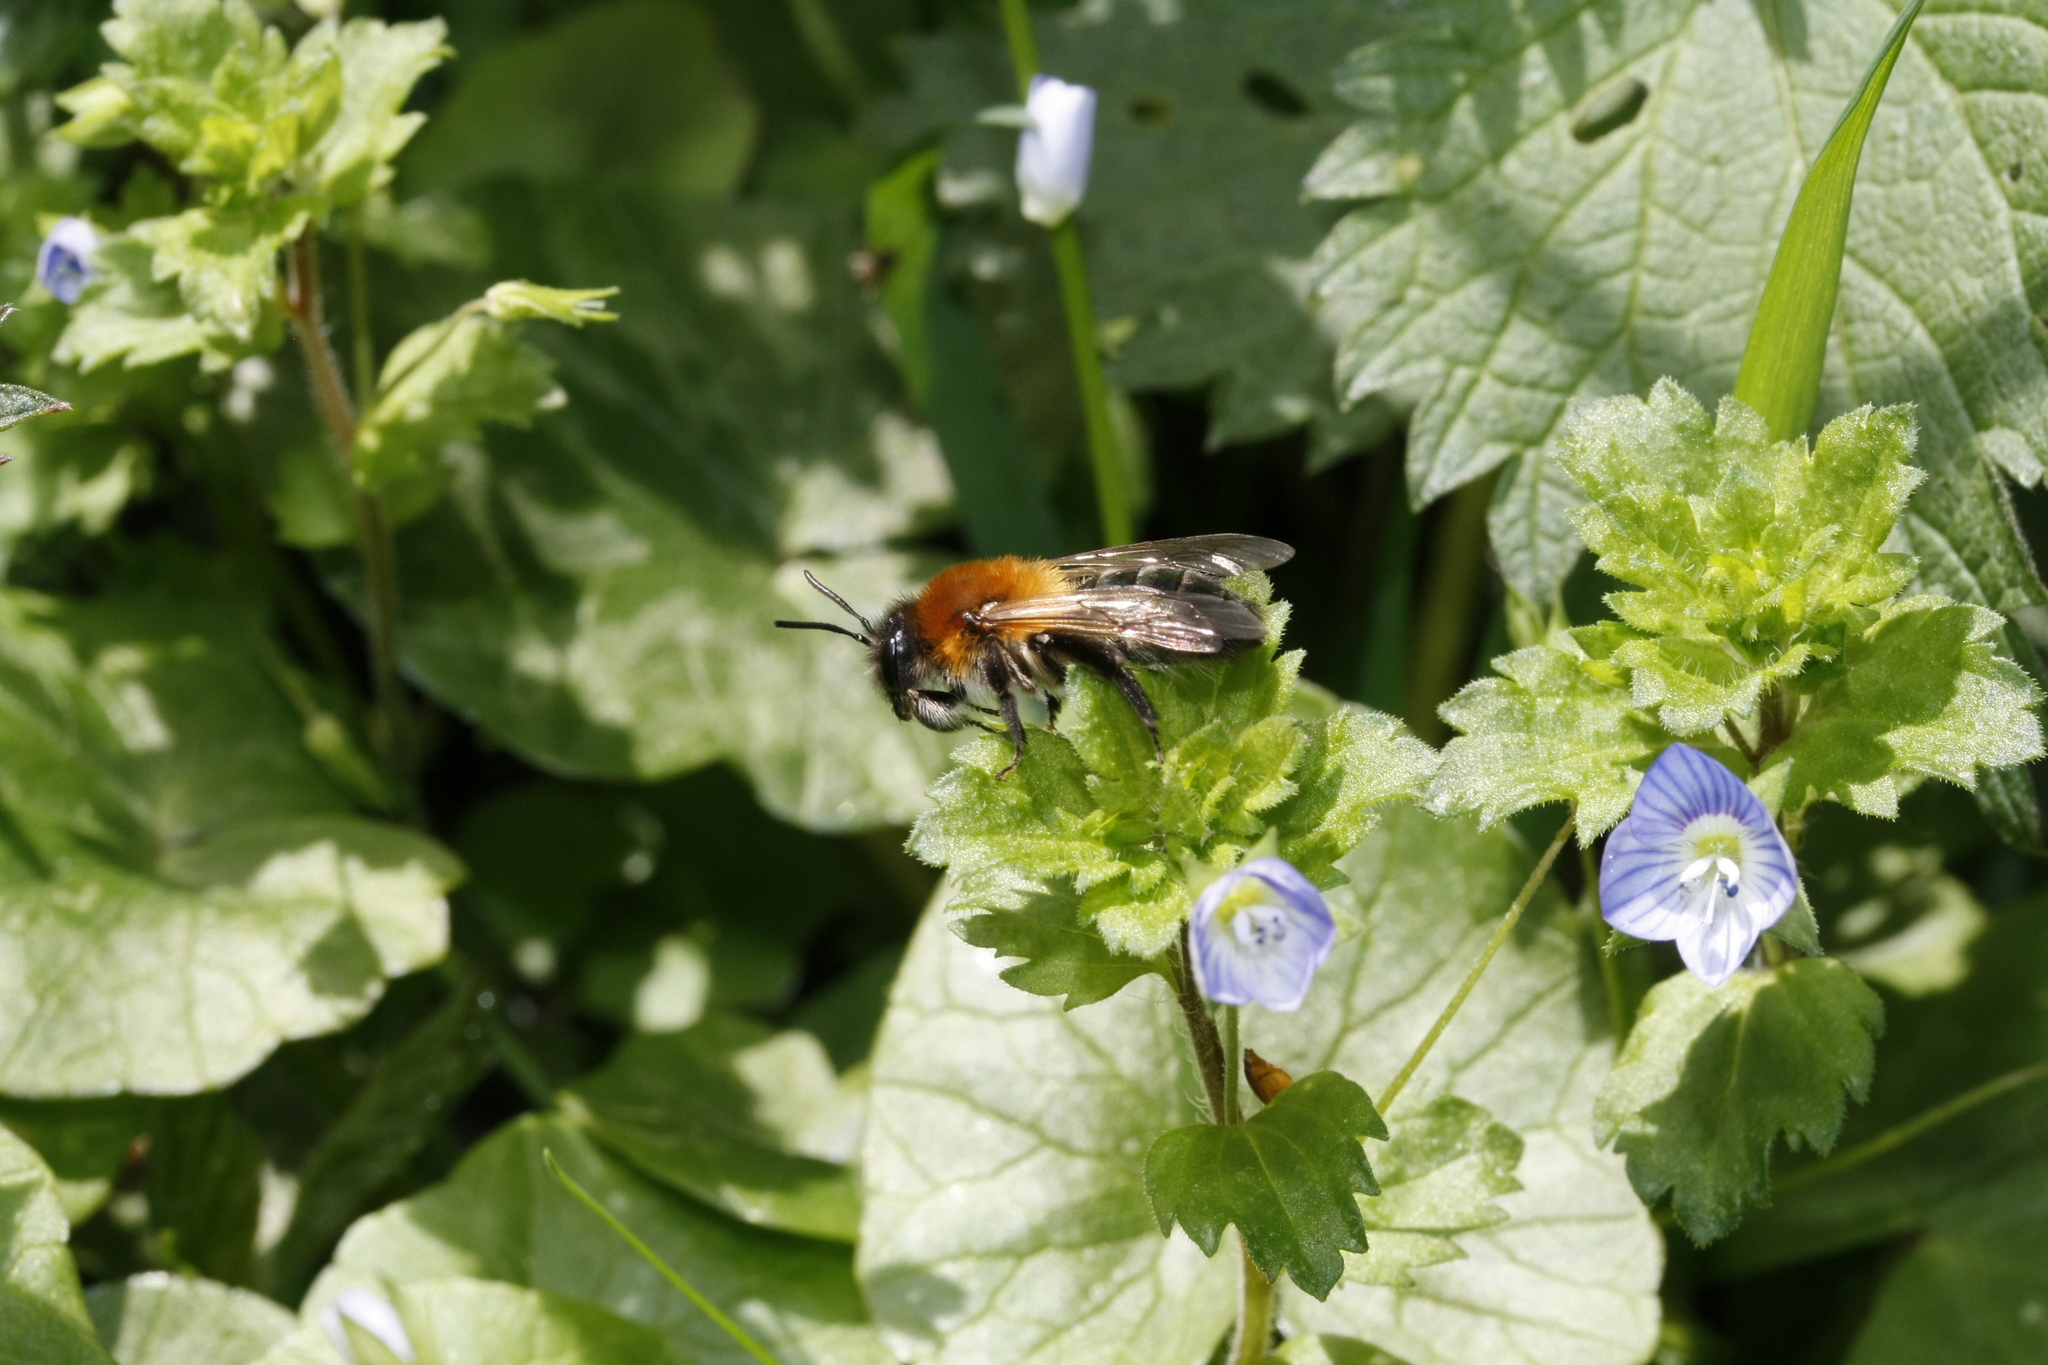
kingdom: Animalia
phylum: Arthropoda
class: Insecta
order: Hymenoptera
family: Andrenidae
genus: Andrena
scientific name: Andrena nitida
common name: Grey-patched mining bee
